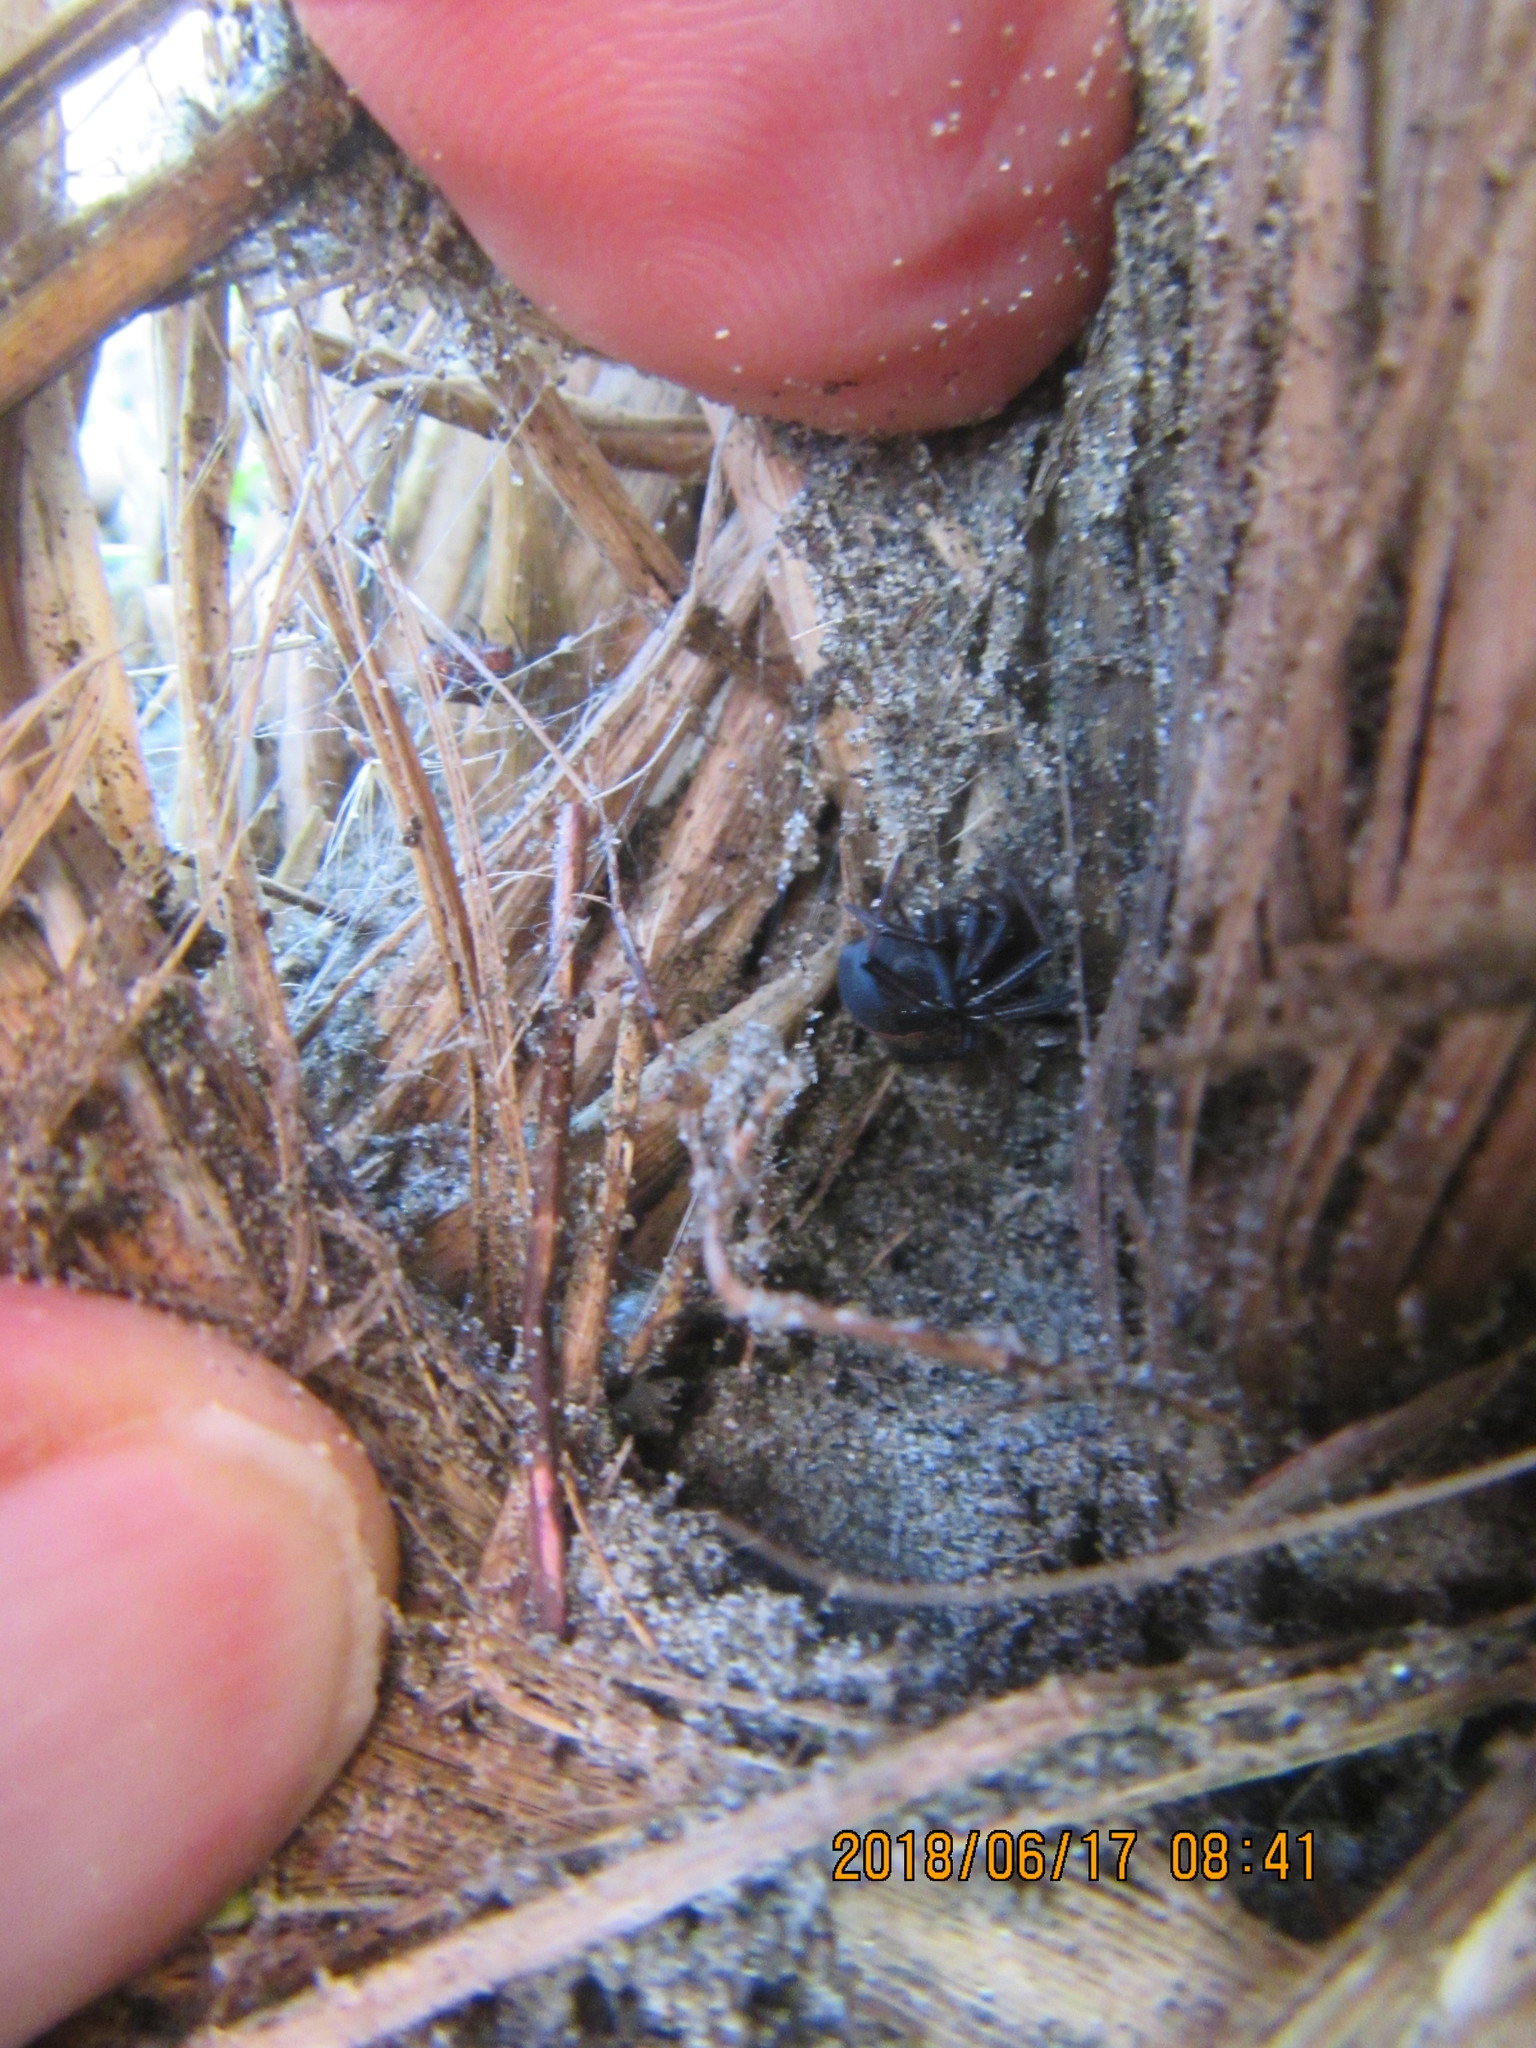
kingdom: Animalia
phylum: Arthropoda
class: Arachnida
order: Araneae
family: Theridiidae
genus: Latrodectus
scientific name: Latrodectus katipo
